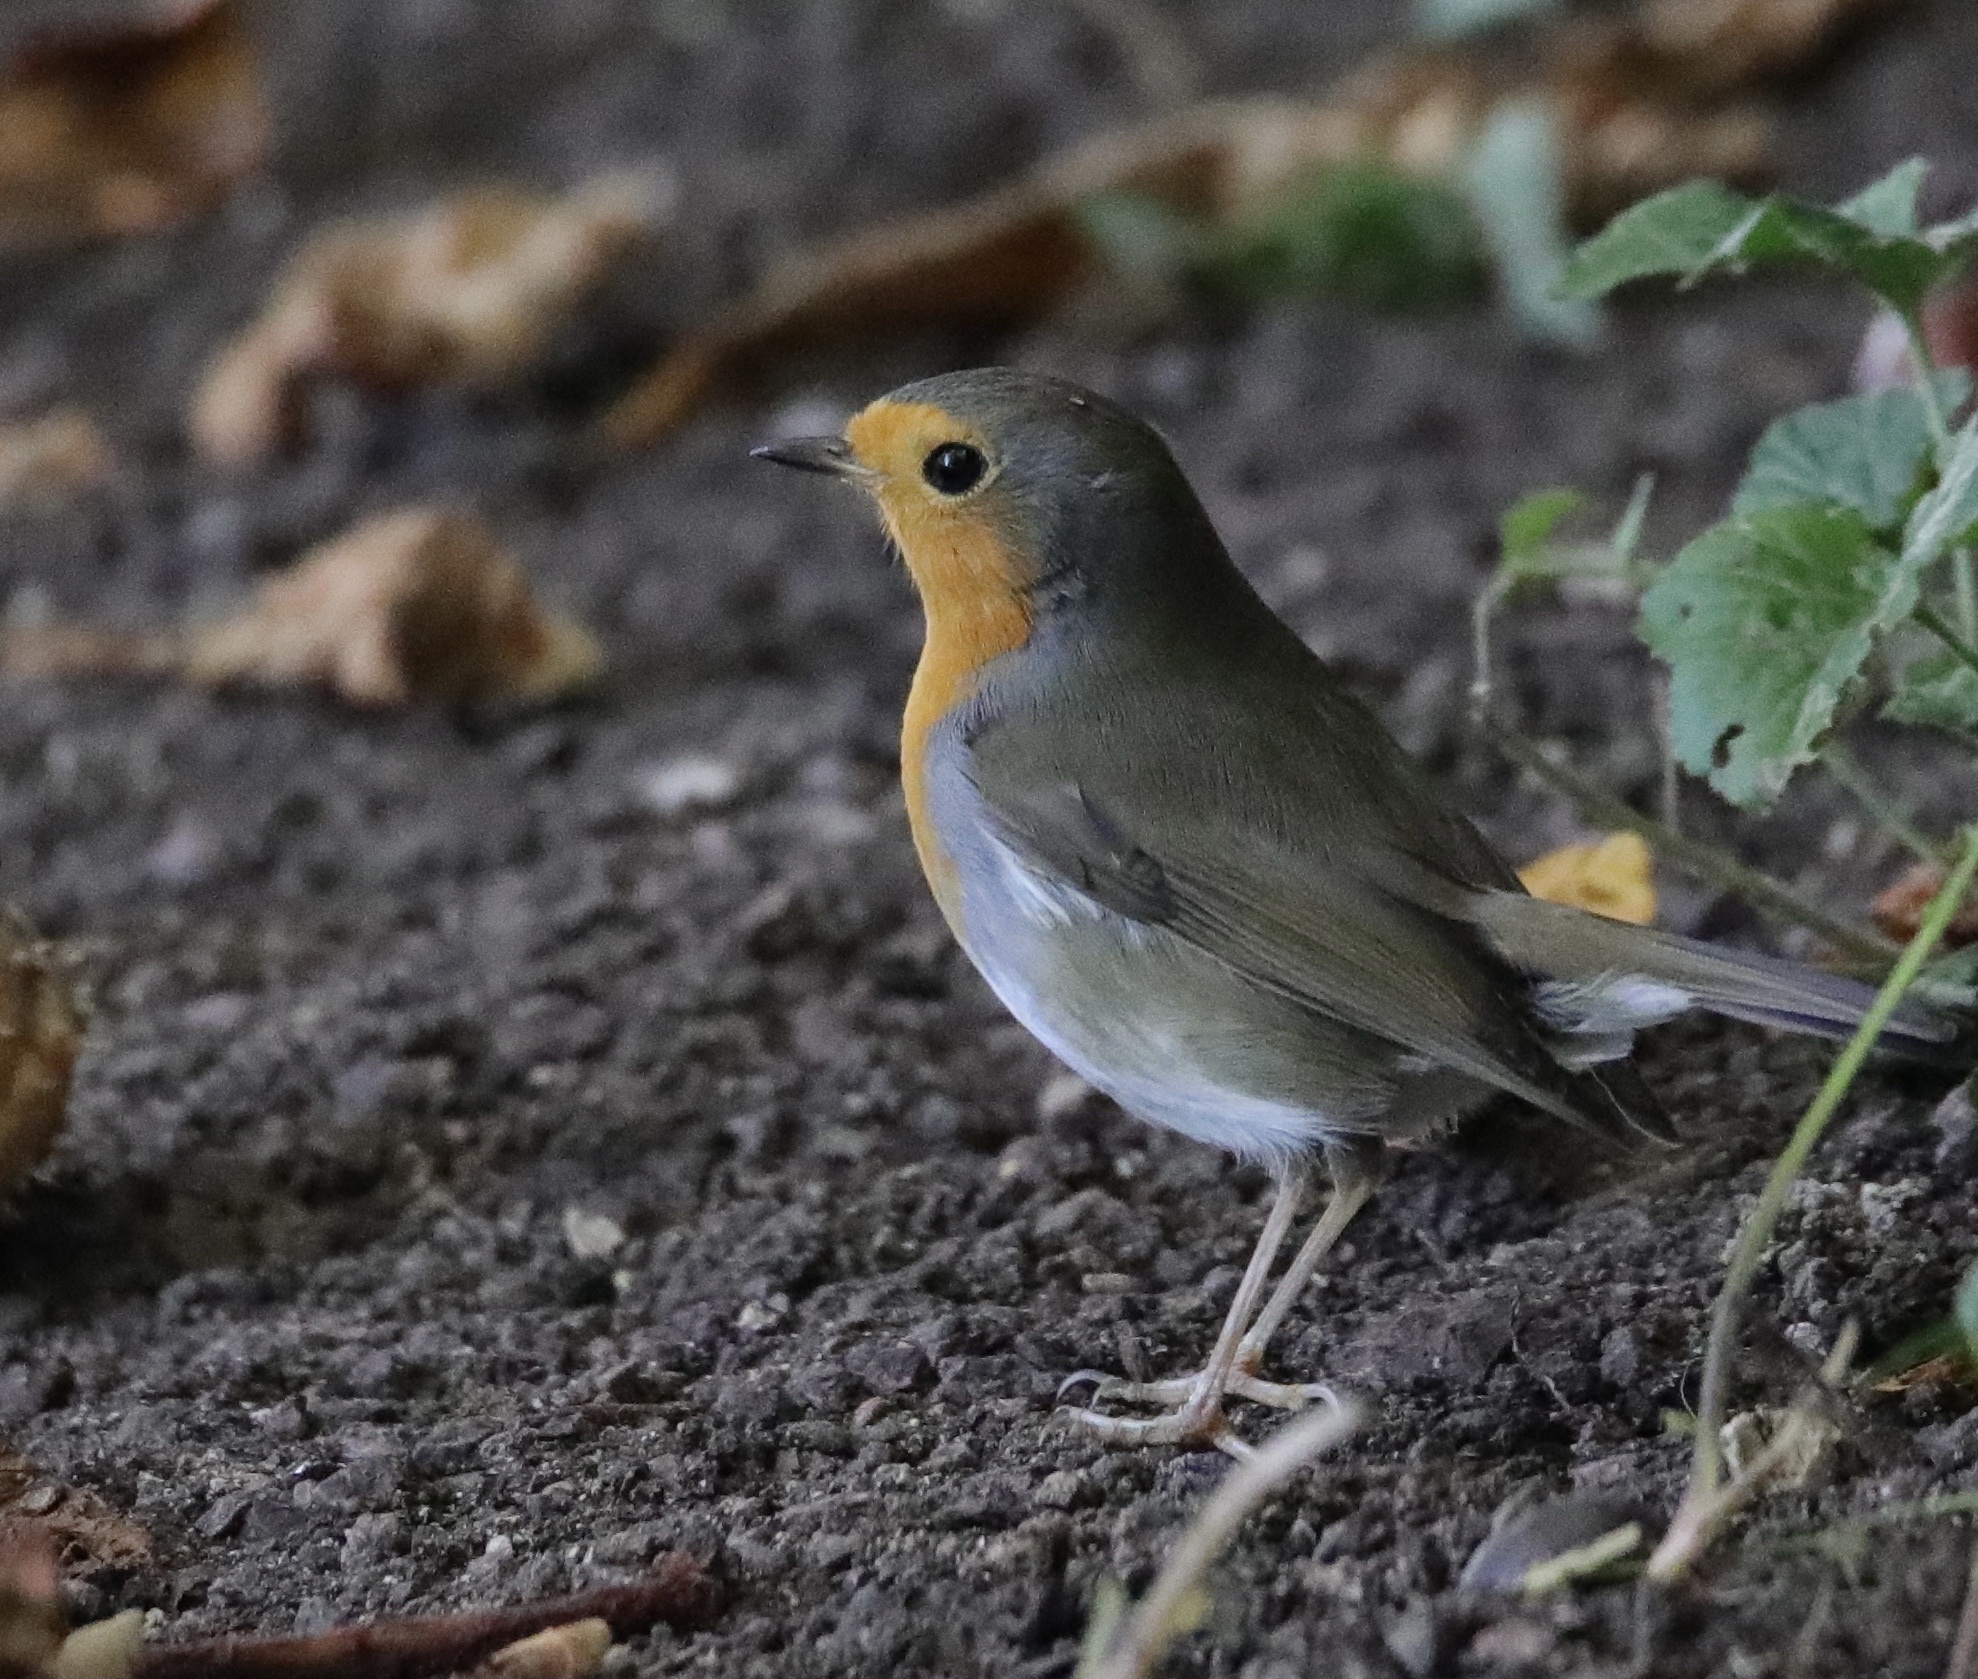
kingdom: Animalia
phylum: Chordata
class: Aves
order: Passeriformes
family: Muscicapidae
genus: Erithacus
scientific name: Erithacus rubecula
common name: European robin
